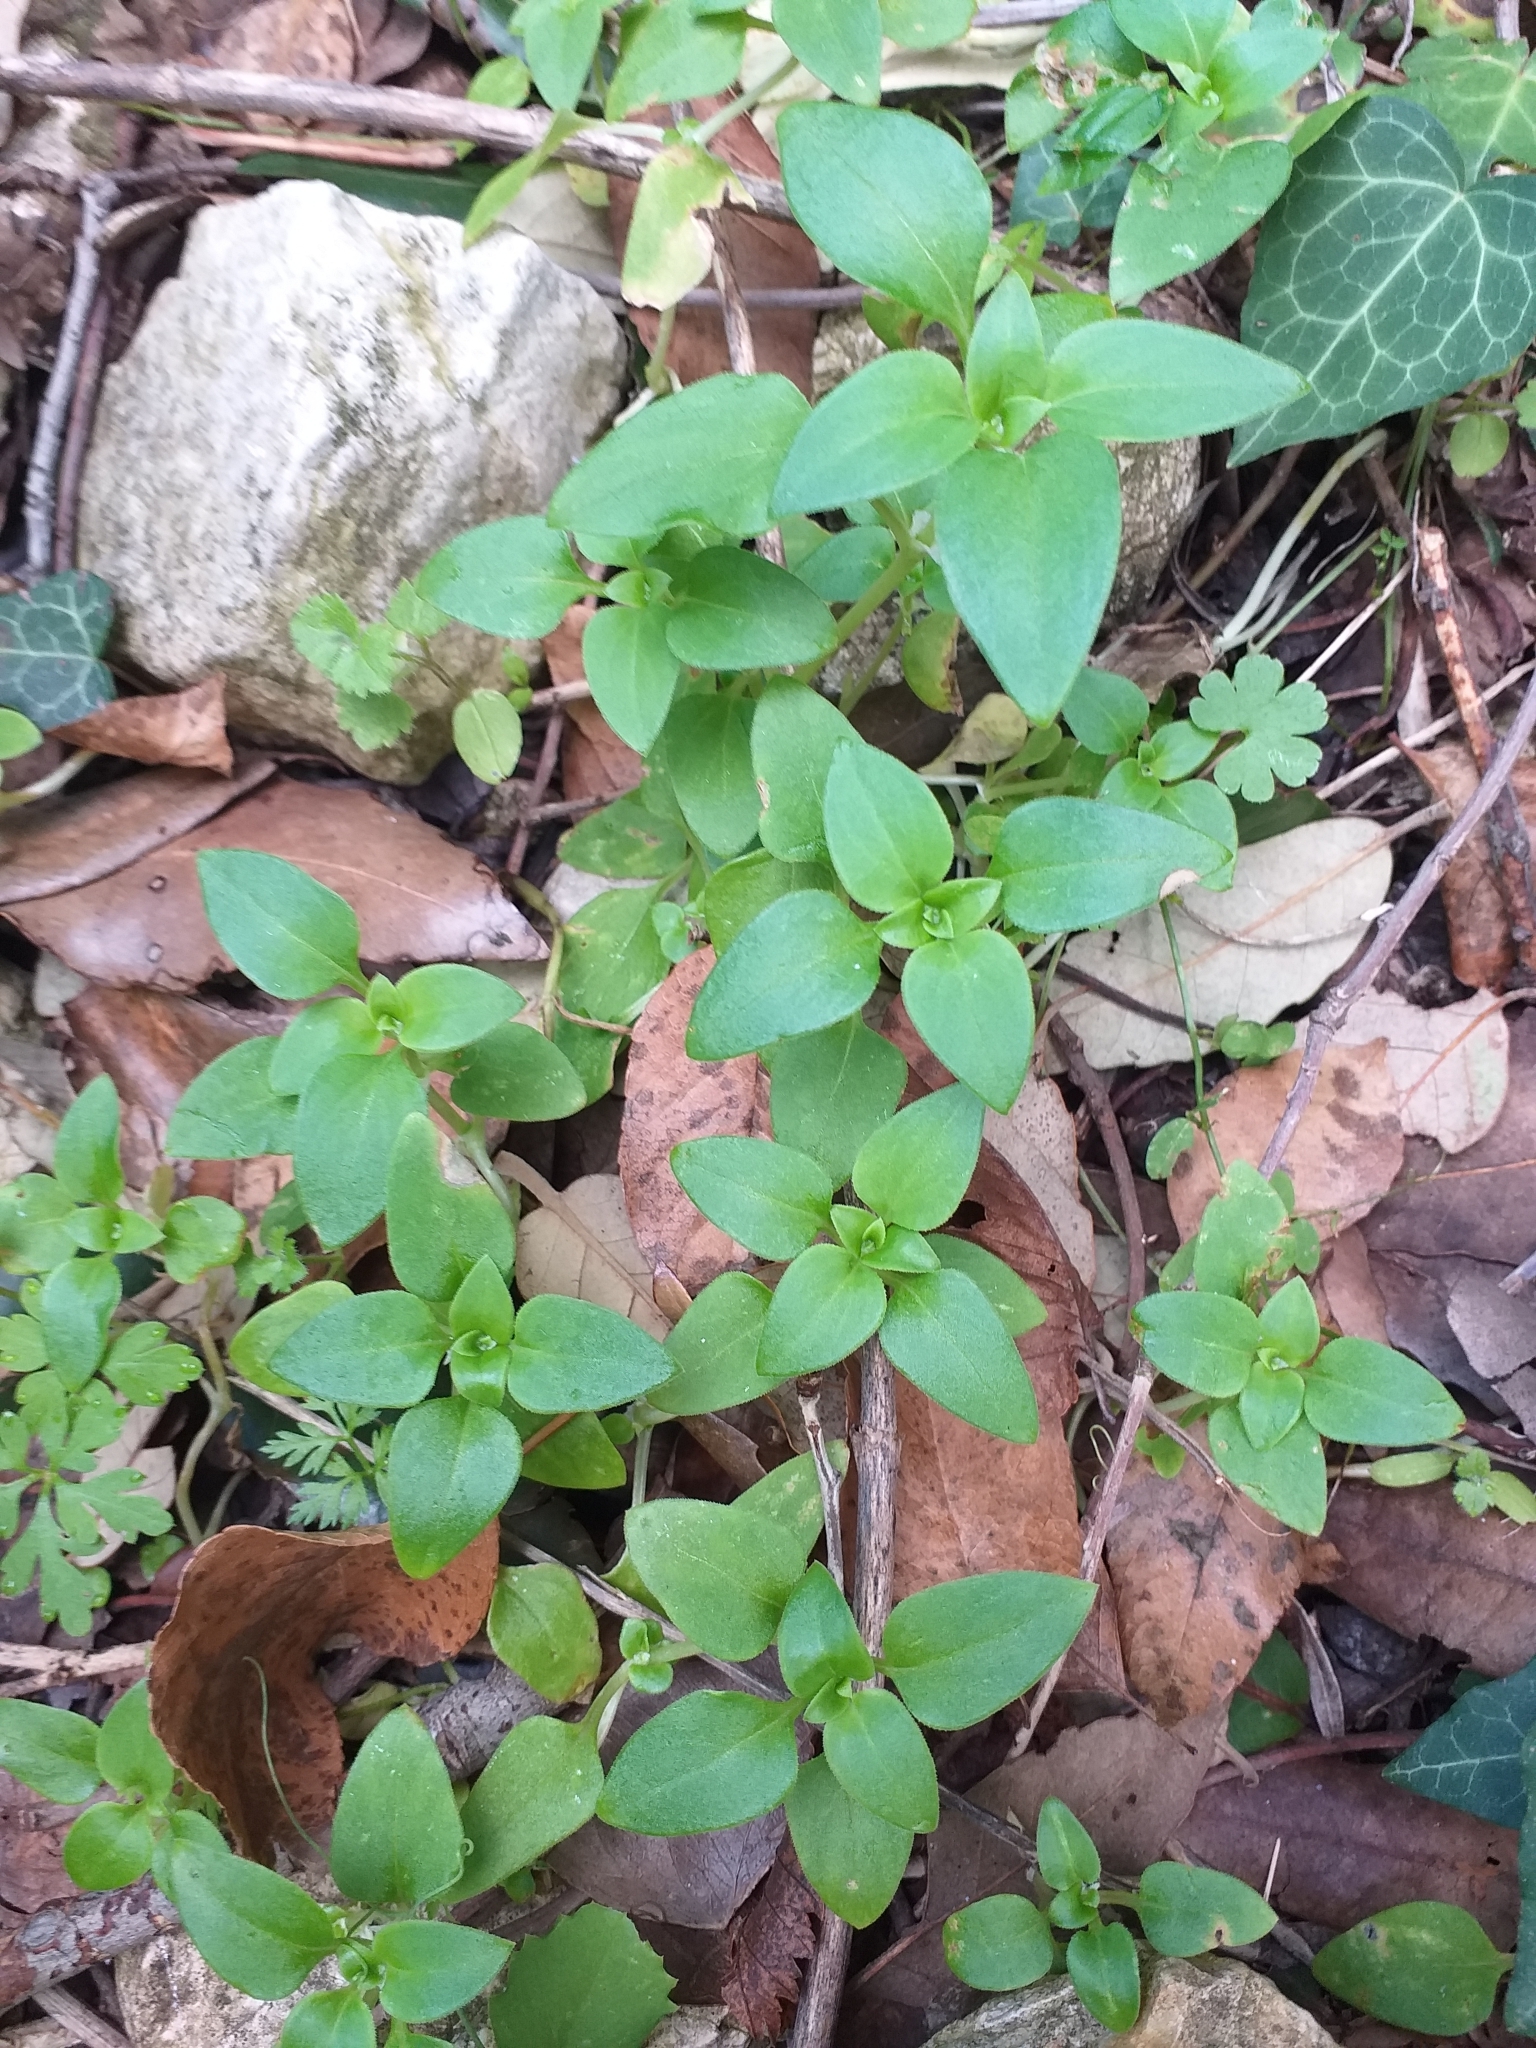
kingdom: Plantae
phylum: Tracheophyta
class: Magnoliopsida
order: Gentianales
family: Rubiaceae
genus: Theligonum
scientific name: Theligonum cynocrambe
